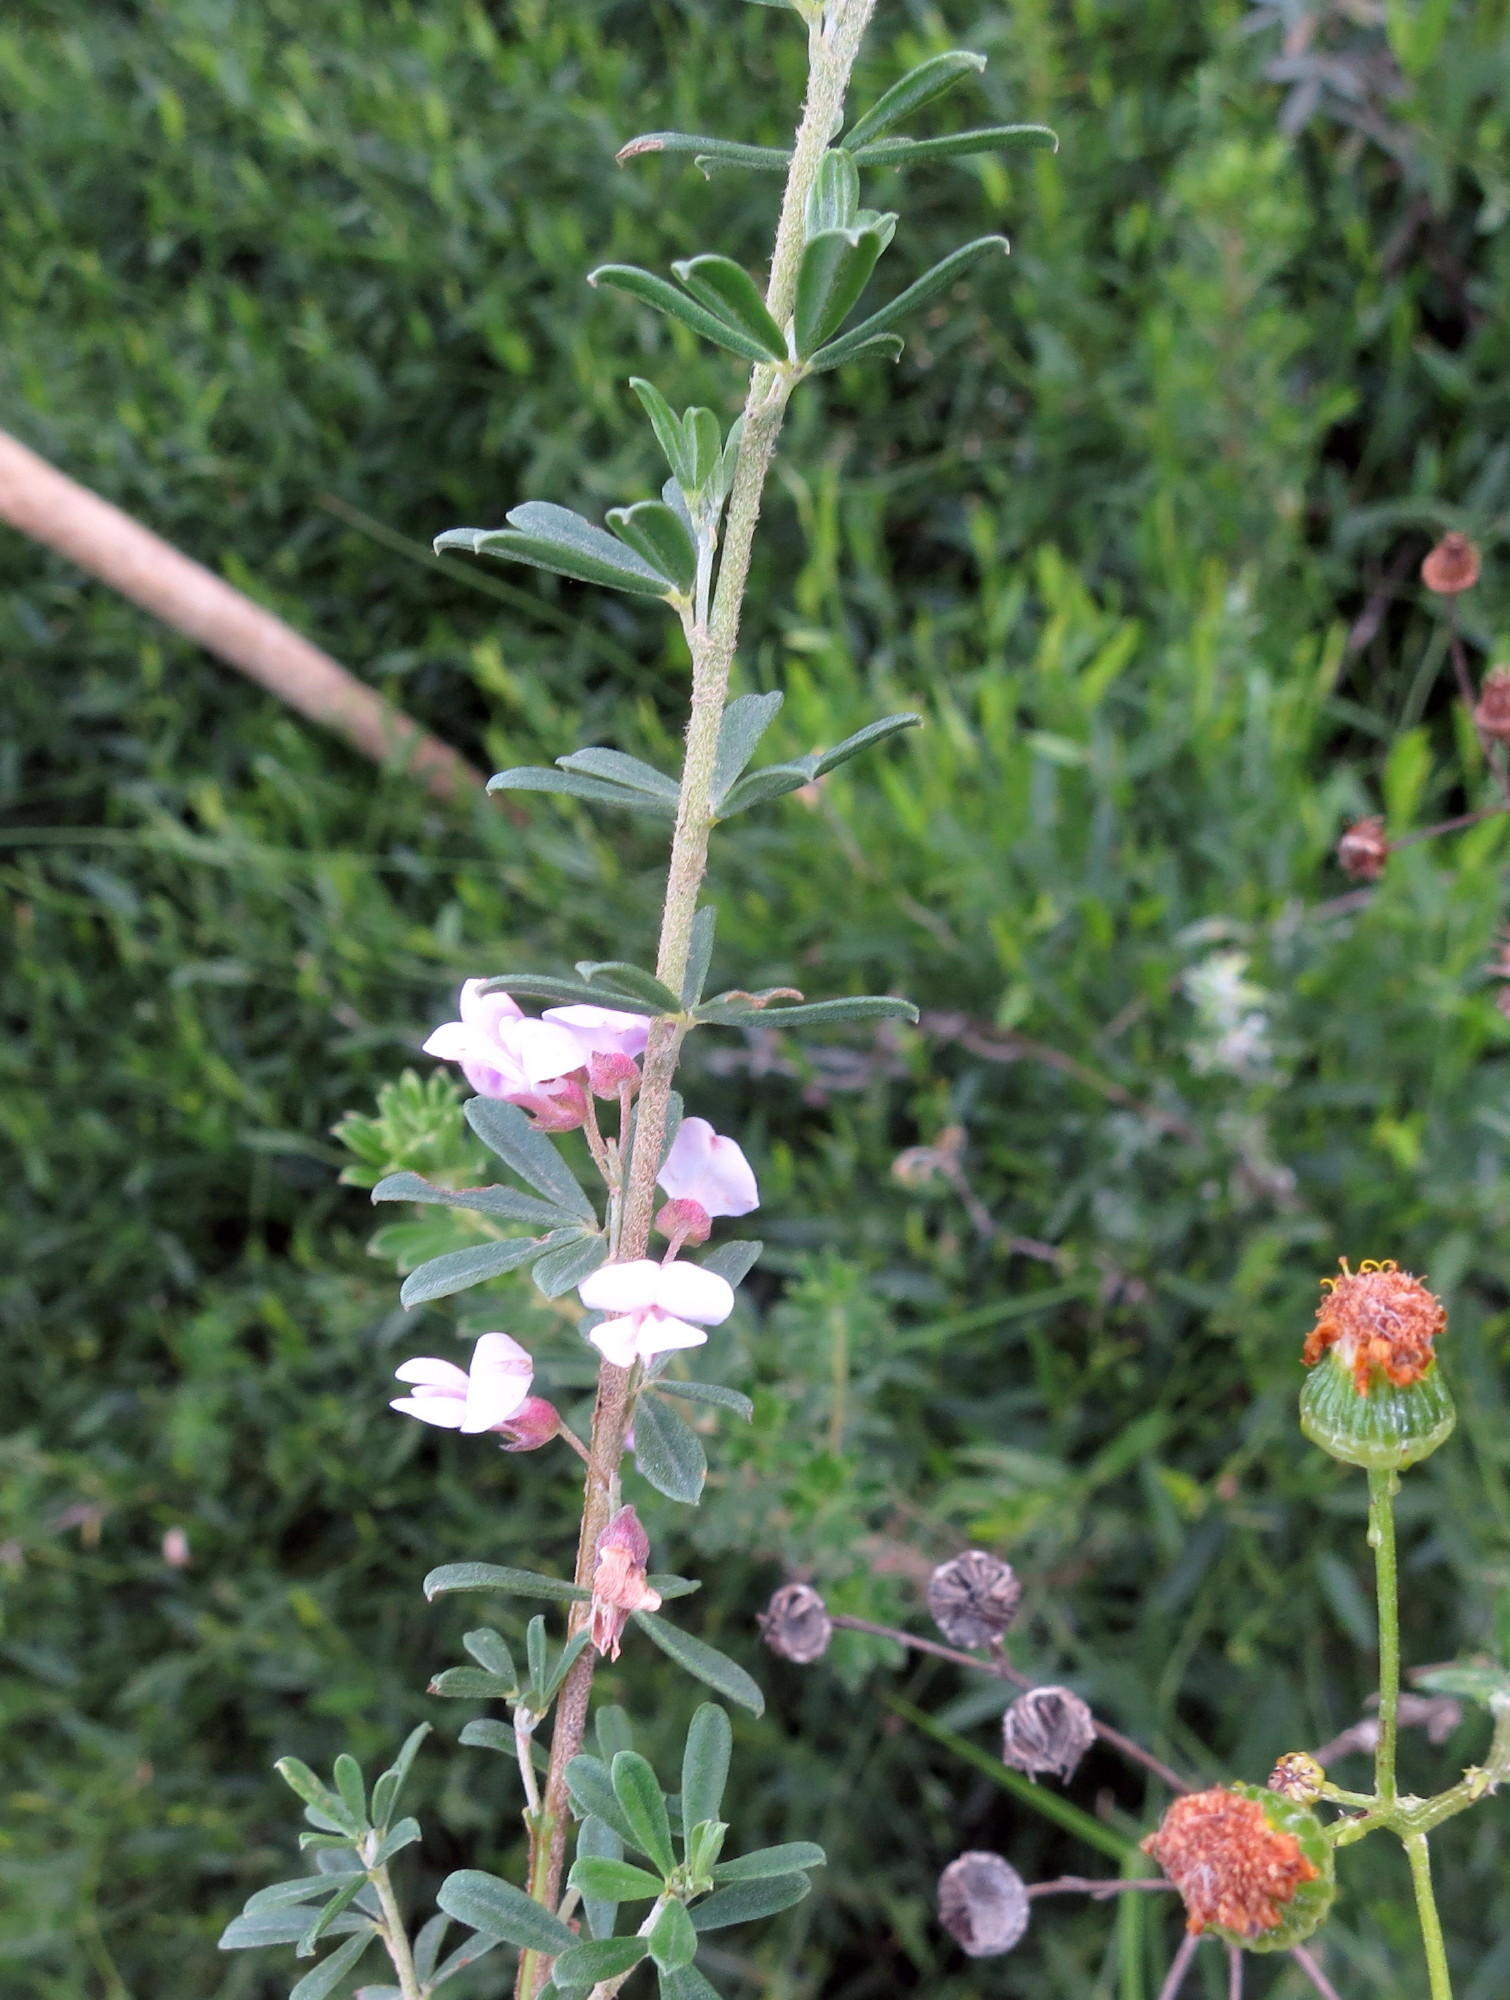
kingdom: Plantae
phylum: Tracheophyta
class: Magnoliopsida
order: Fabales
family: Fabaceae
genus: Indigofera
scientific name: Indigofera flabellata
